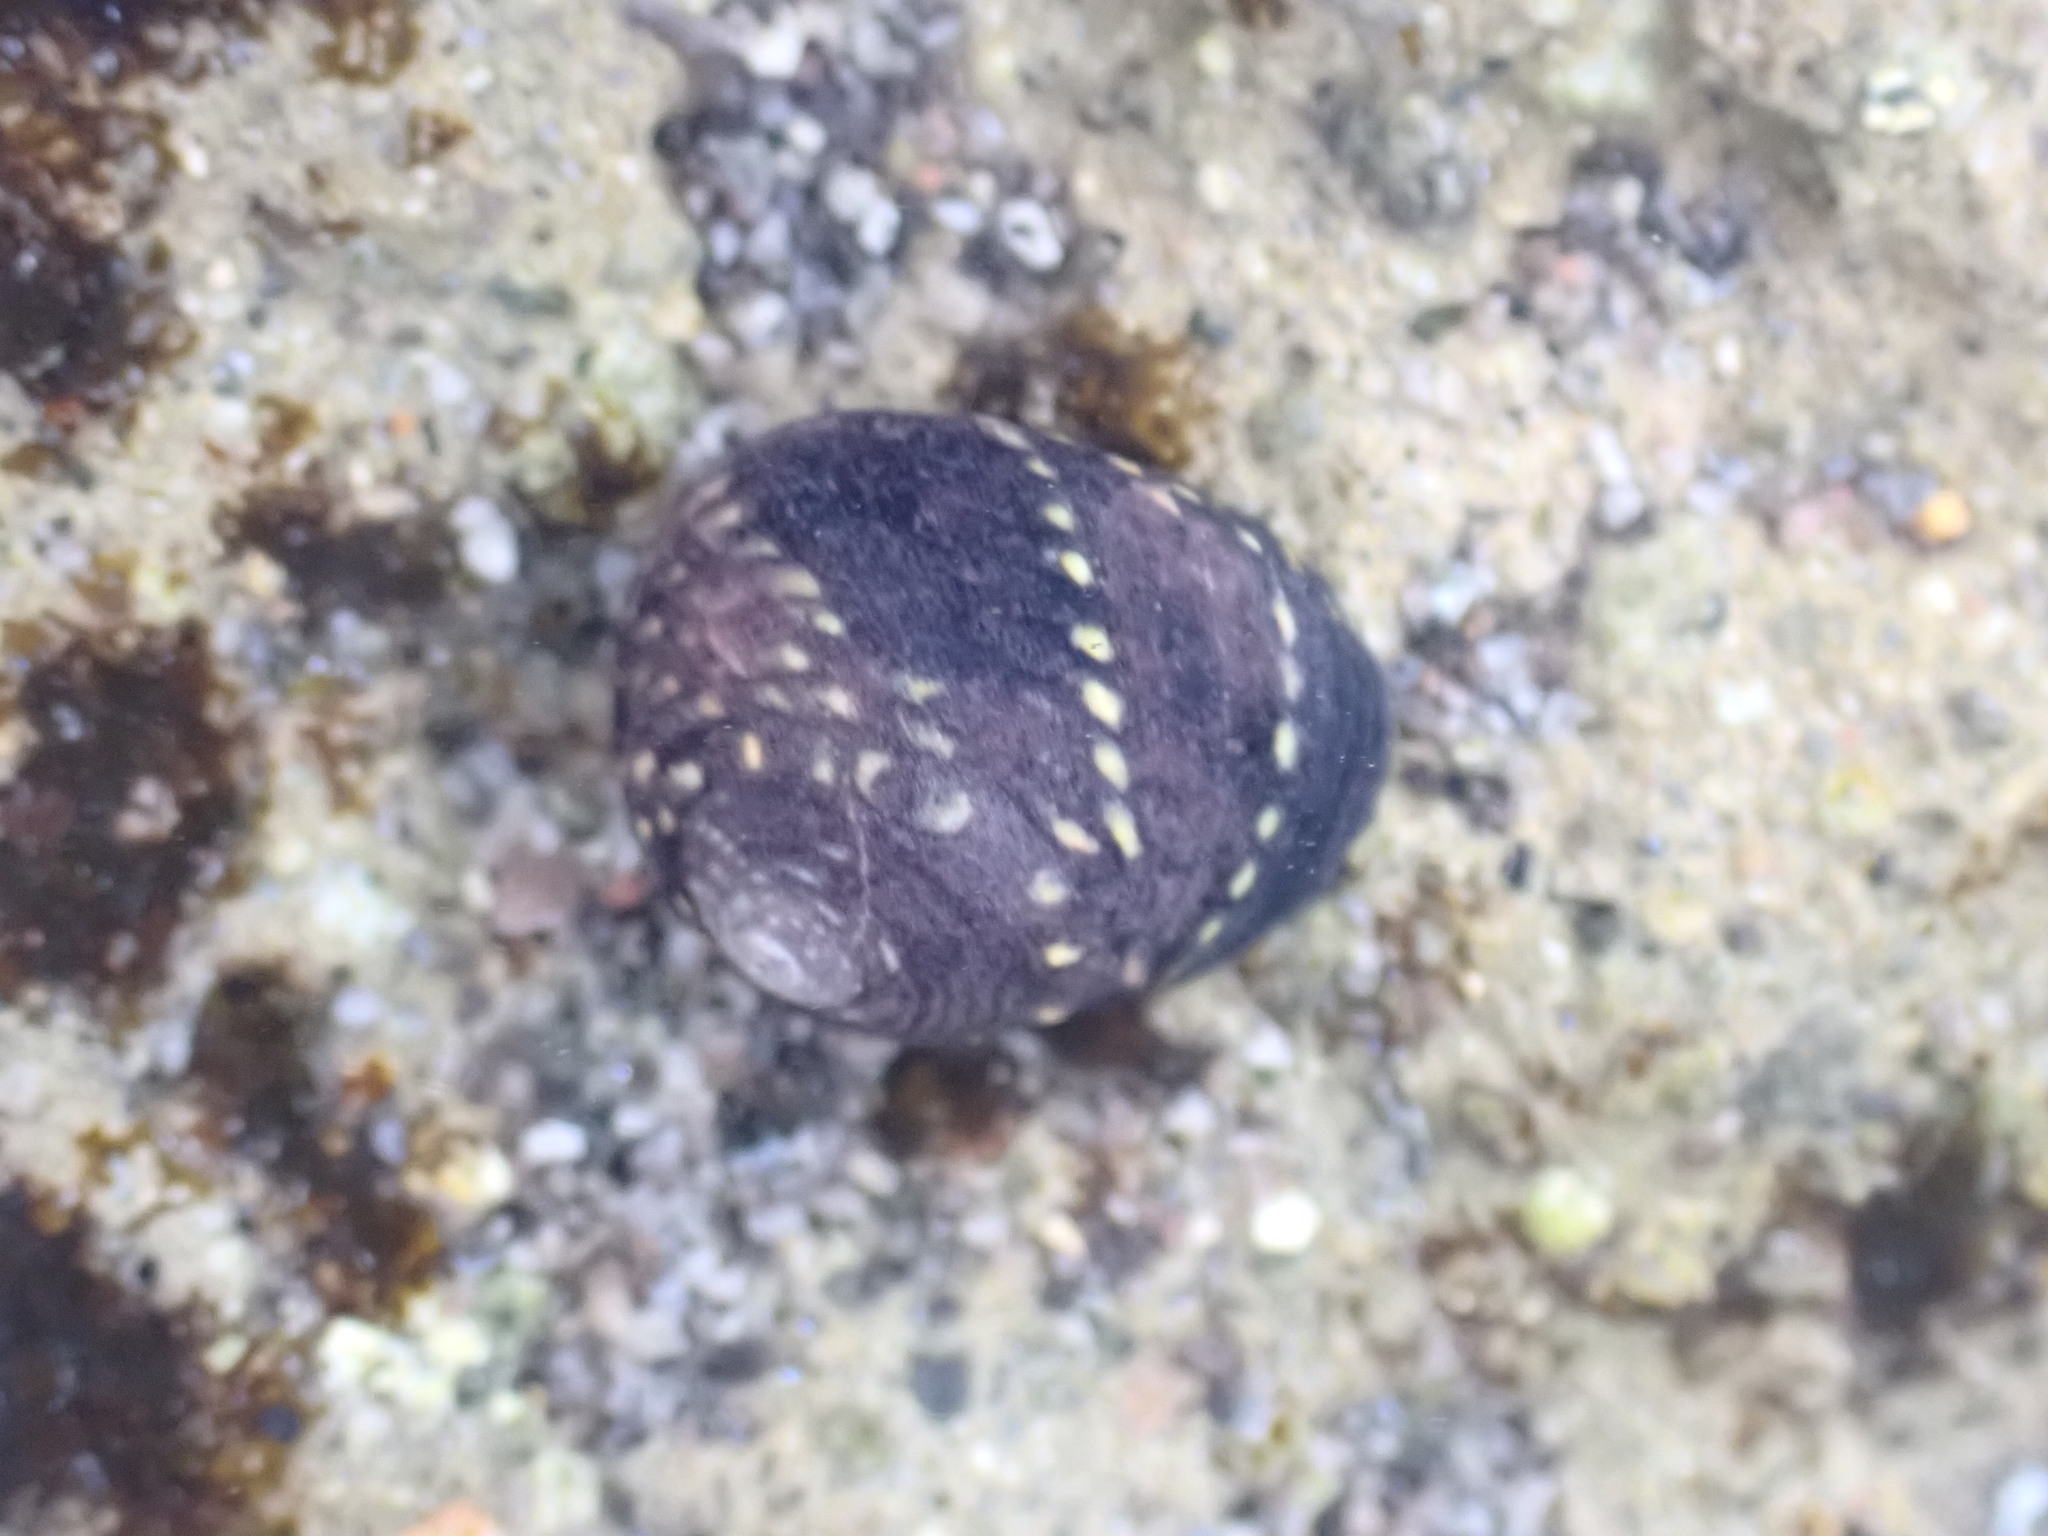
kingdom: Animalia
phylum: Mollusca
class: Gastropoda
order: Trochida
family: Trochidae
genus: Diloma
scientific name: Diloma aridum
